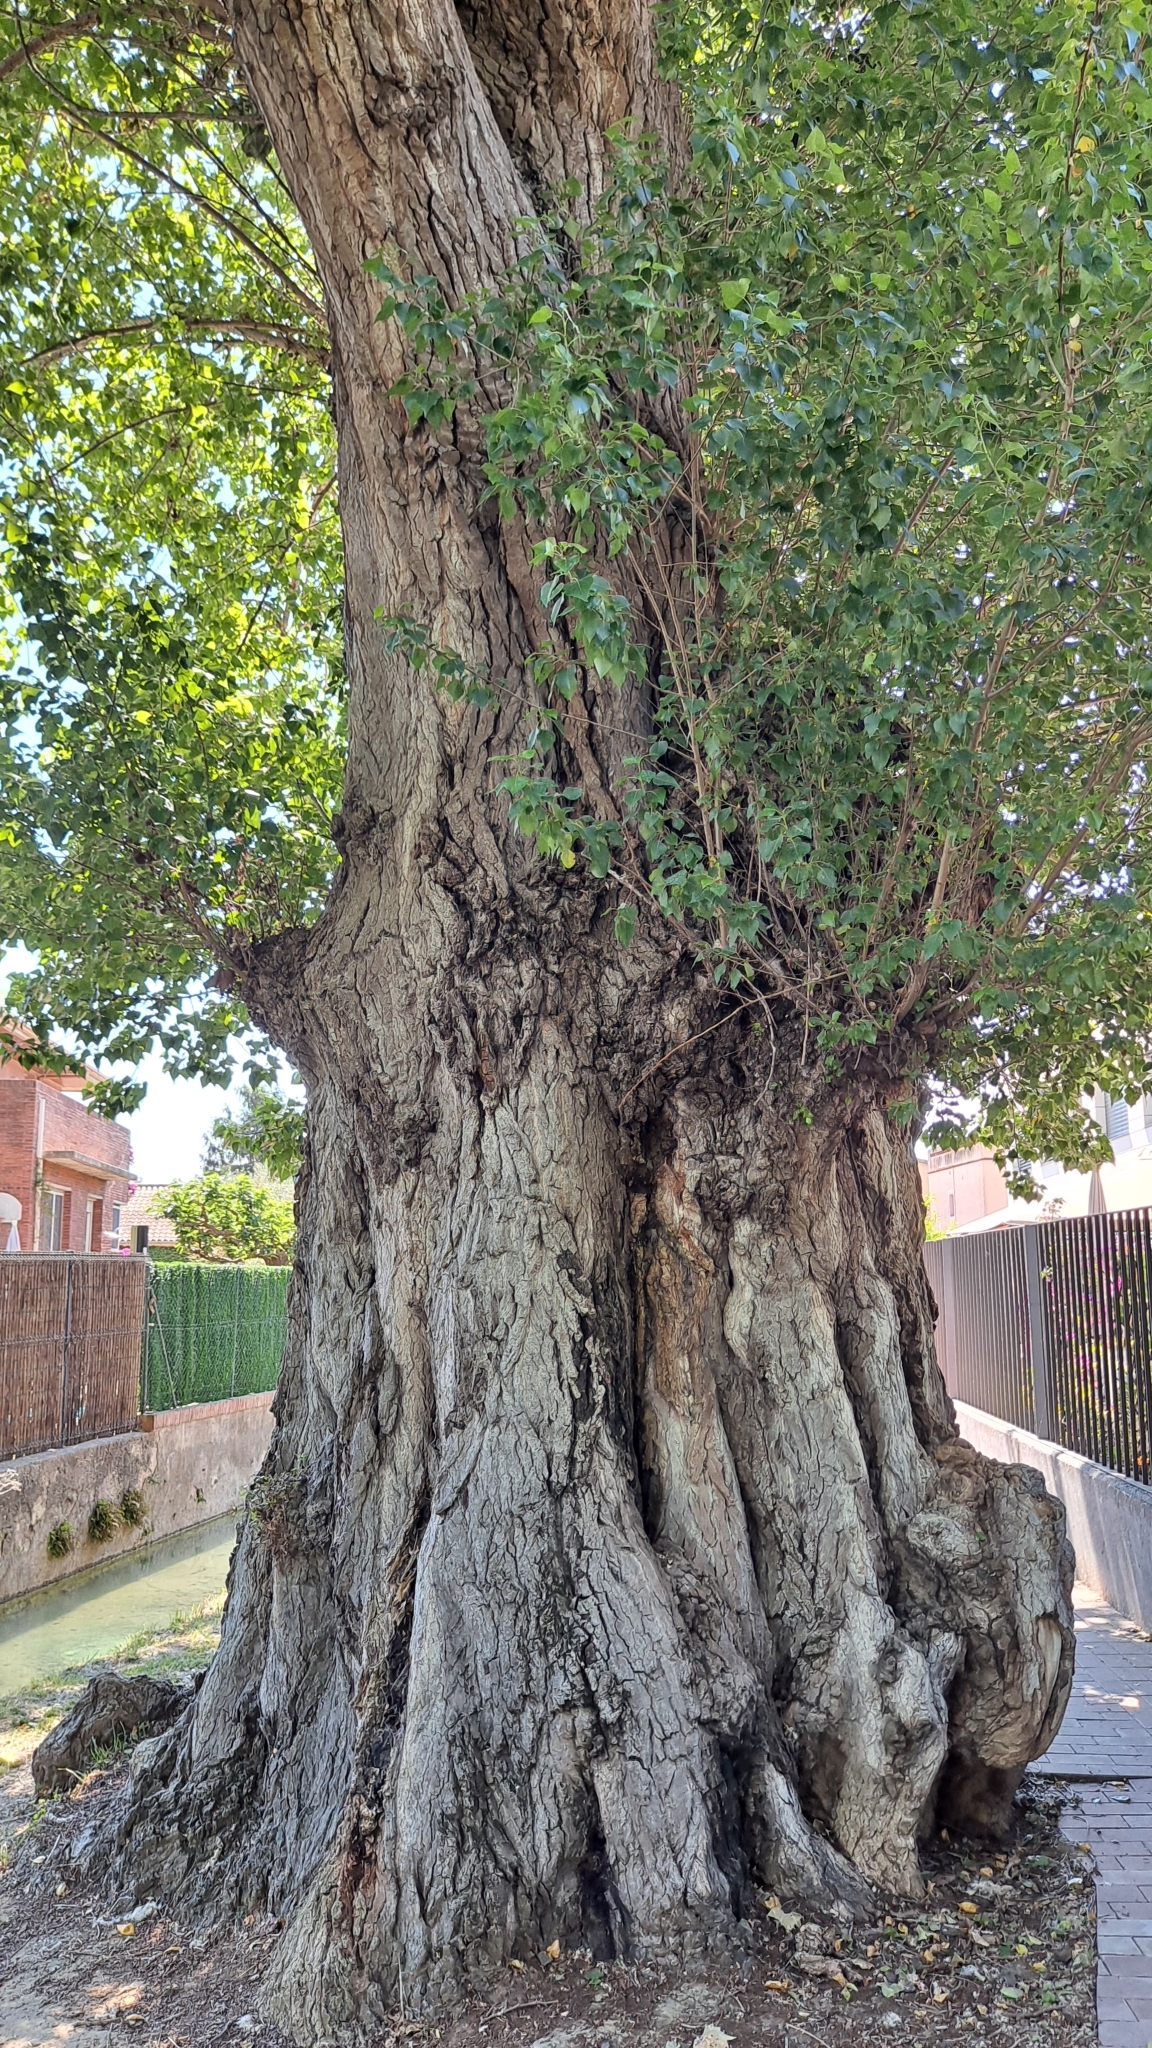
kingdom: Plantae
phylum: Tracheophyta
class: Magnoliopsida
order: Malpighiales
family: Salicaceae
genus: Populus
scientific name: Populus nigra
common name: Black poplar
